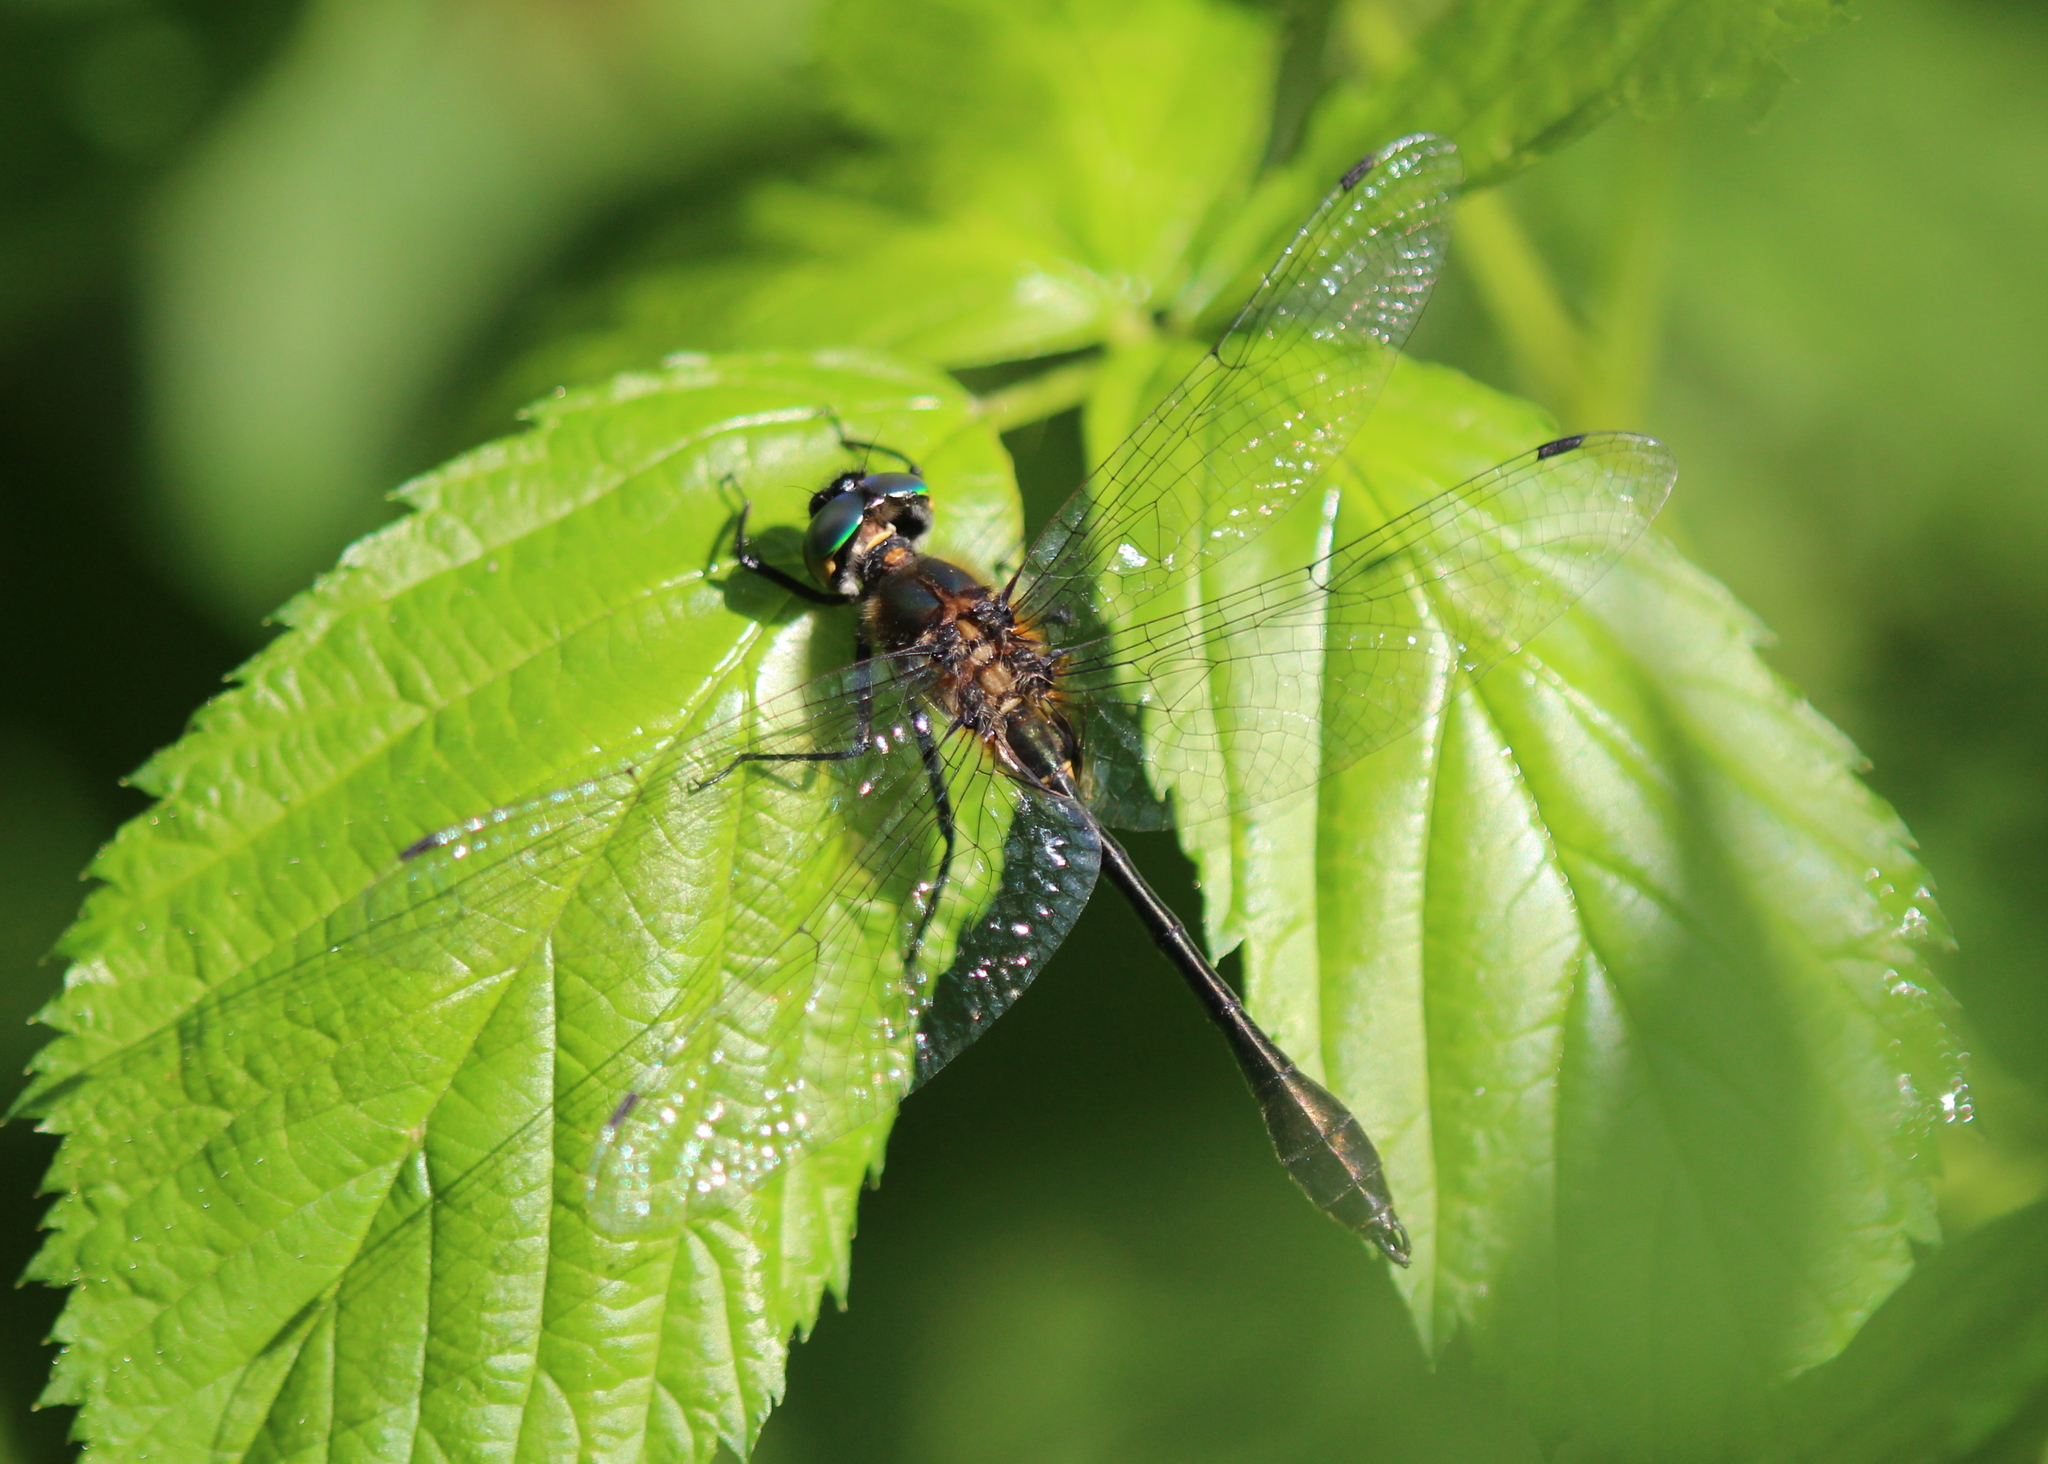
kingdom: Animalia
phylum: Arthropoda
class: Insecta
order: Odonata
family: Corduliidae
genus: Dorocordulia
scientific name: Dorocordulia libera
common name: Racket-tailed emerald
